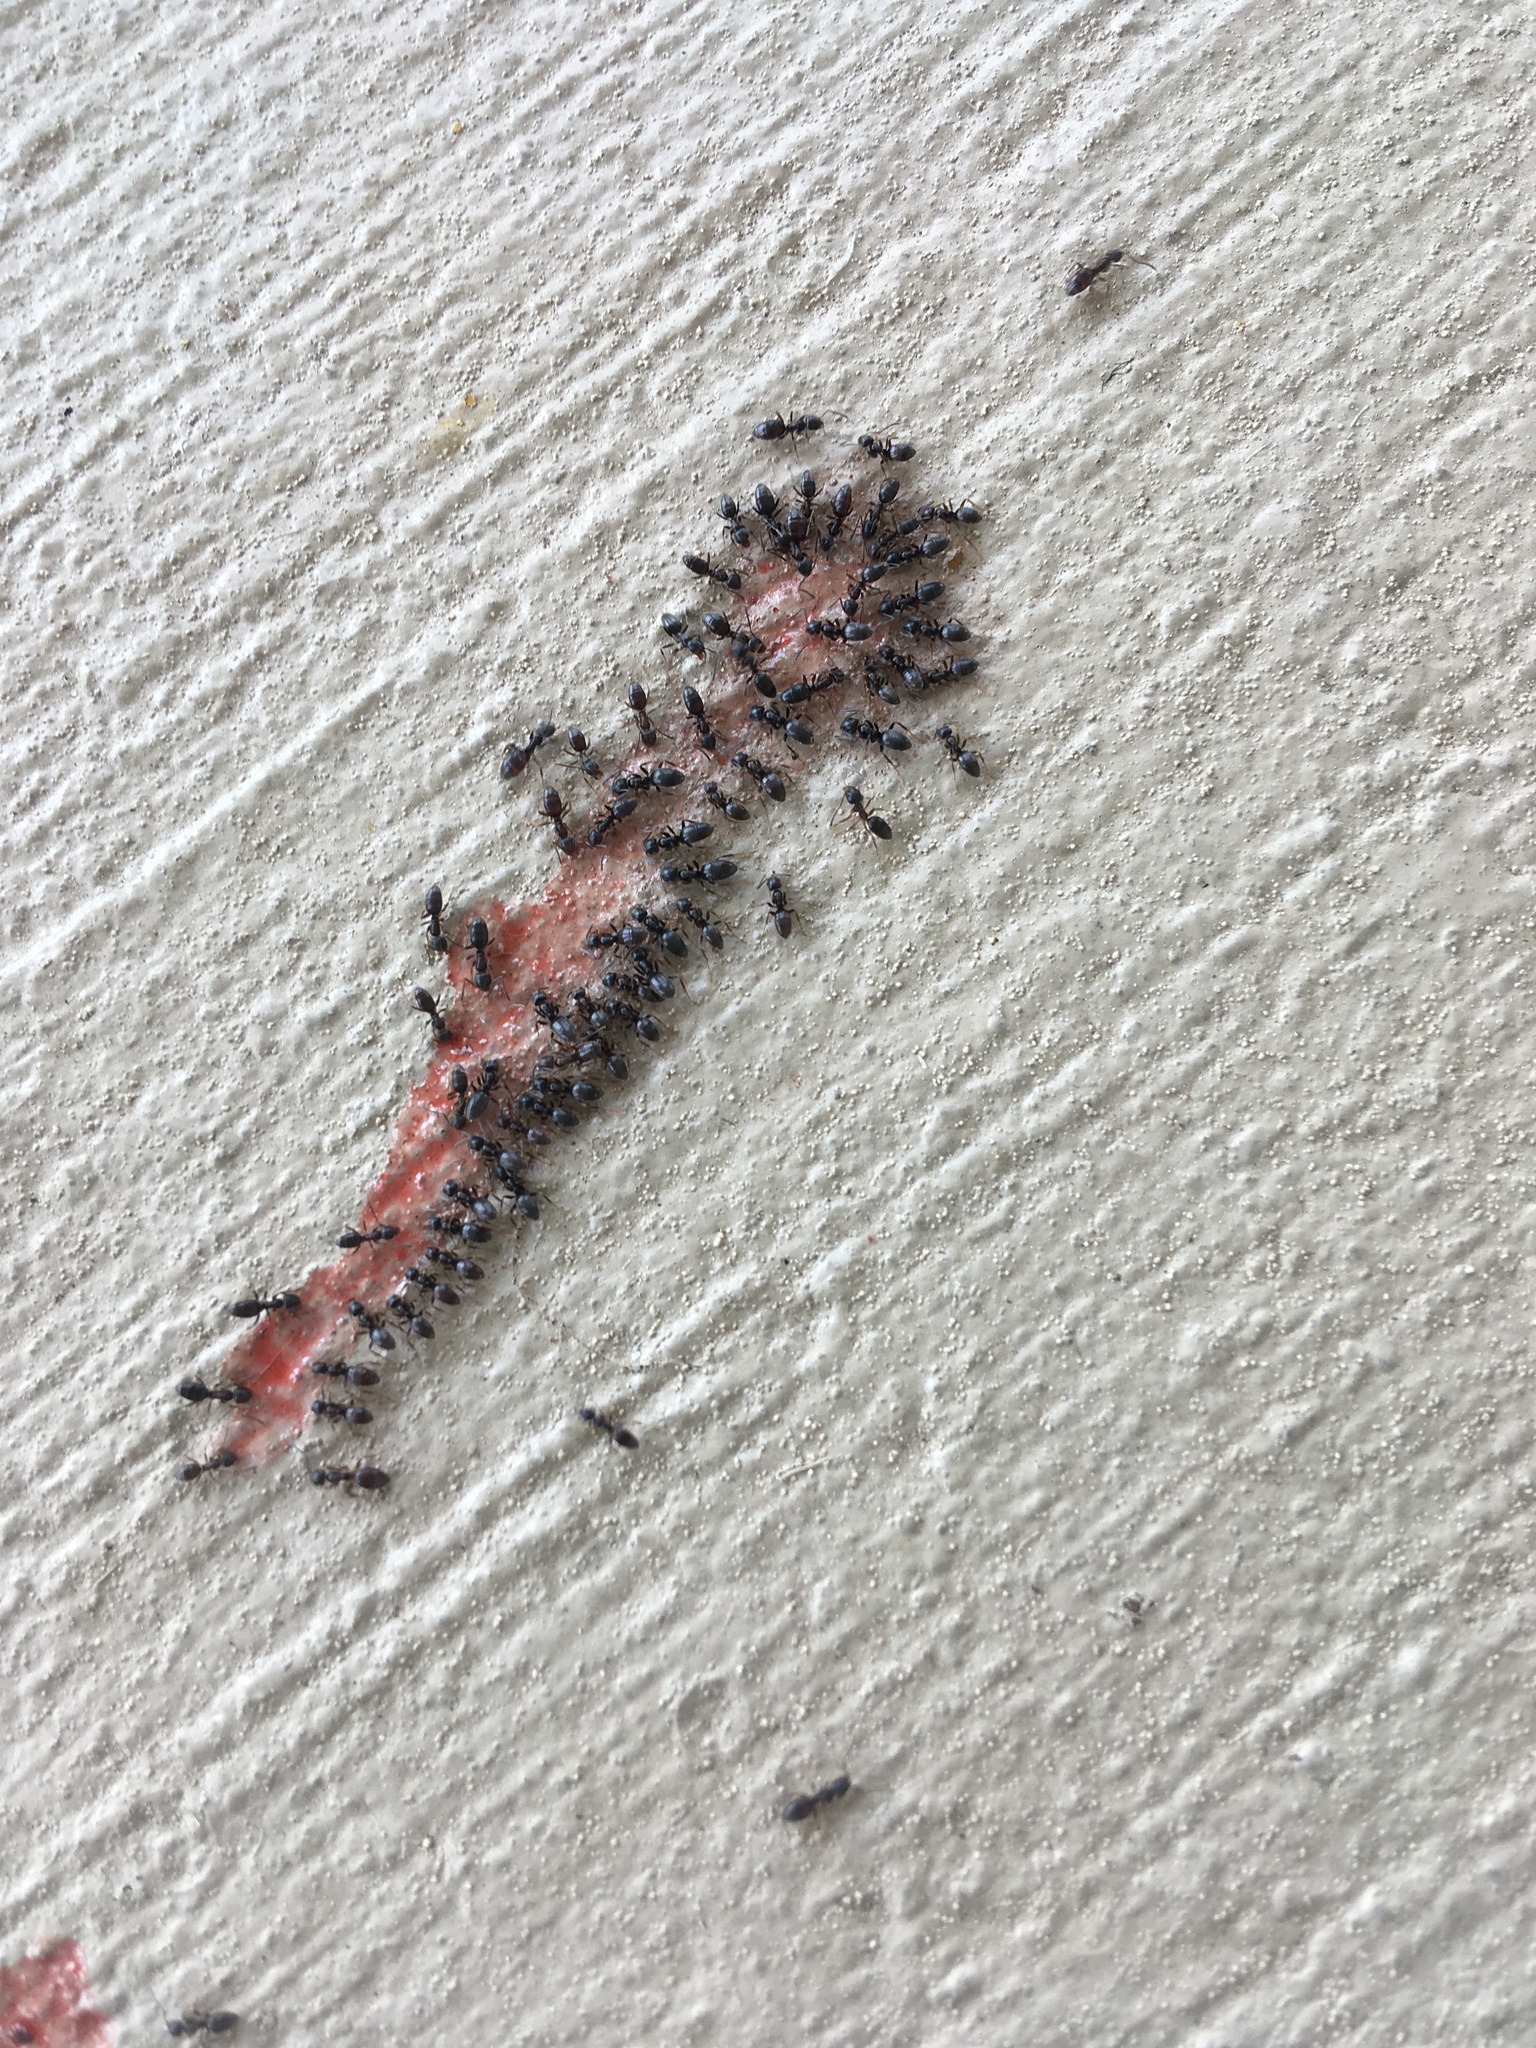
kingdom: Animalia
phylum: Arthropoda
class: Insecta
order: Hymenoptera
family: Formicidae
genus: Tapinoma
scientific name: Tapinoma sessile
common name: Odorous house ant
